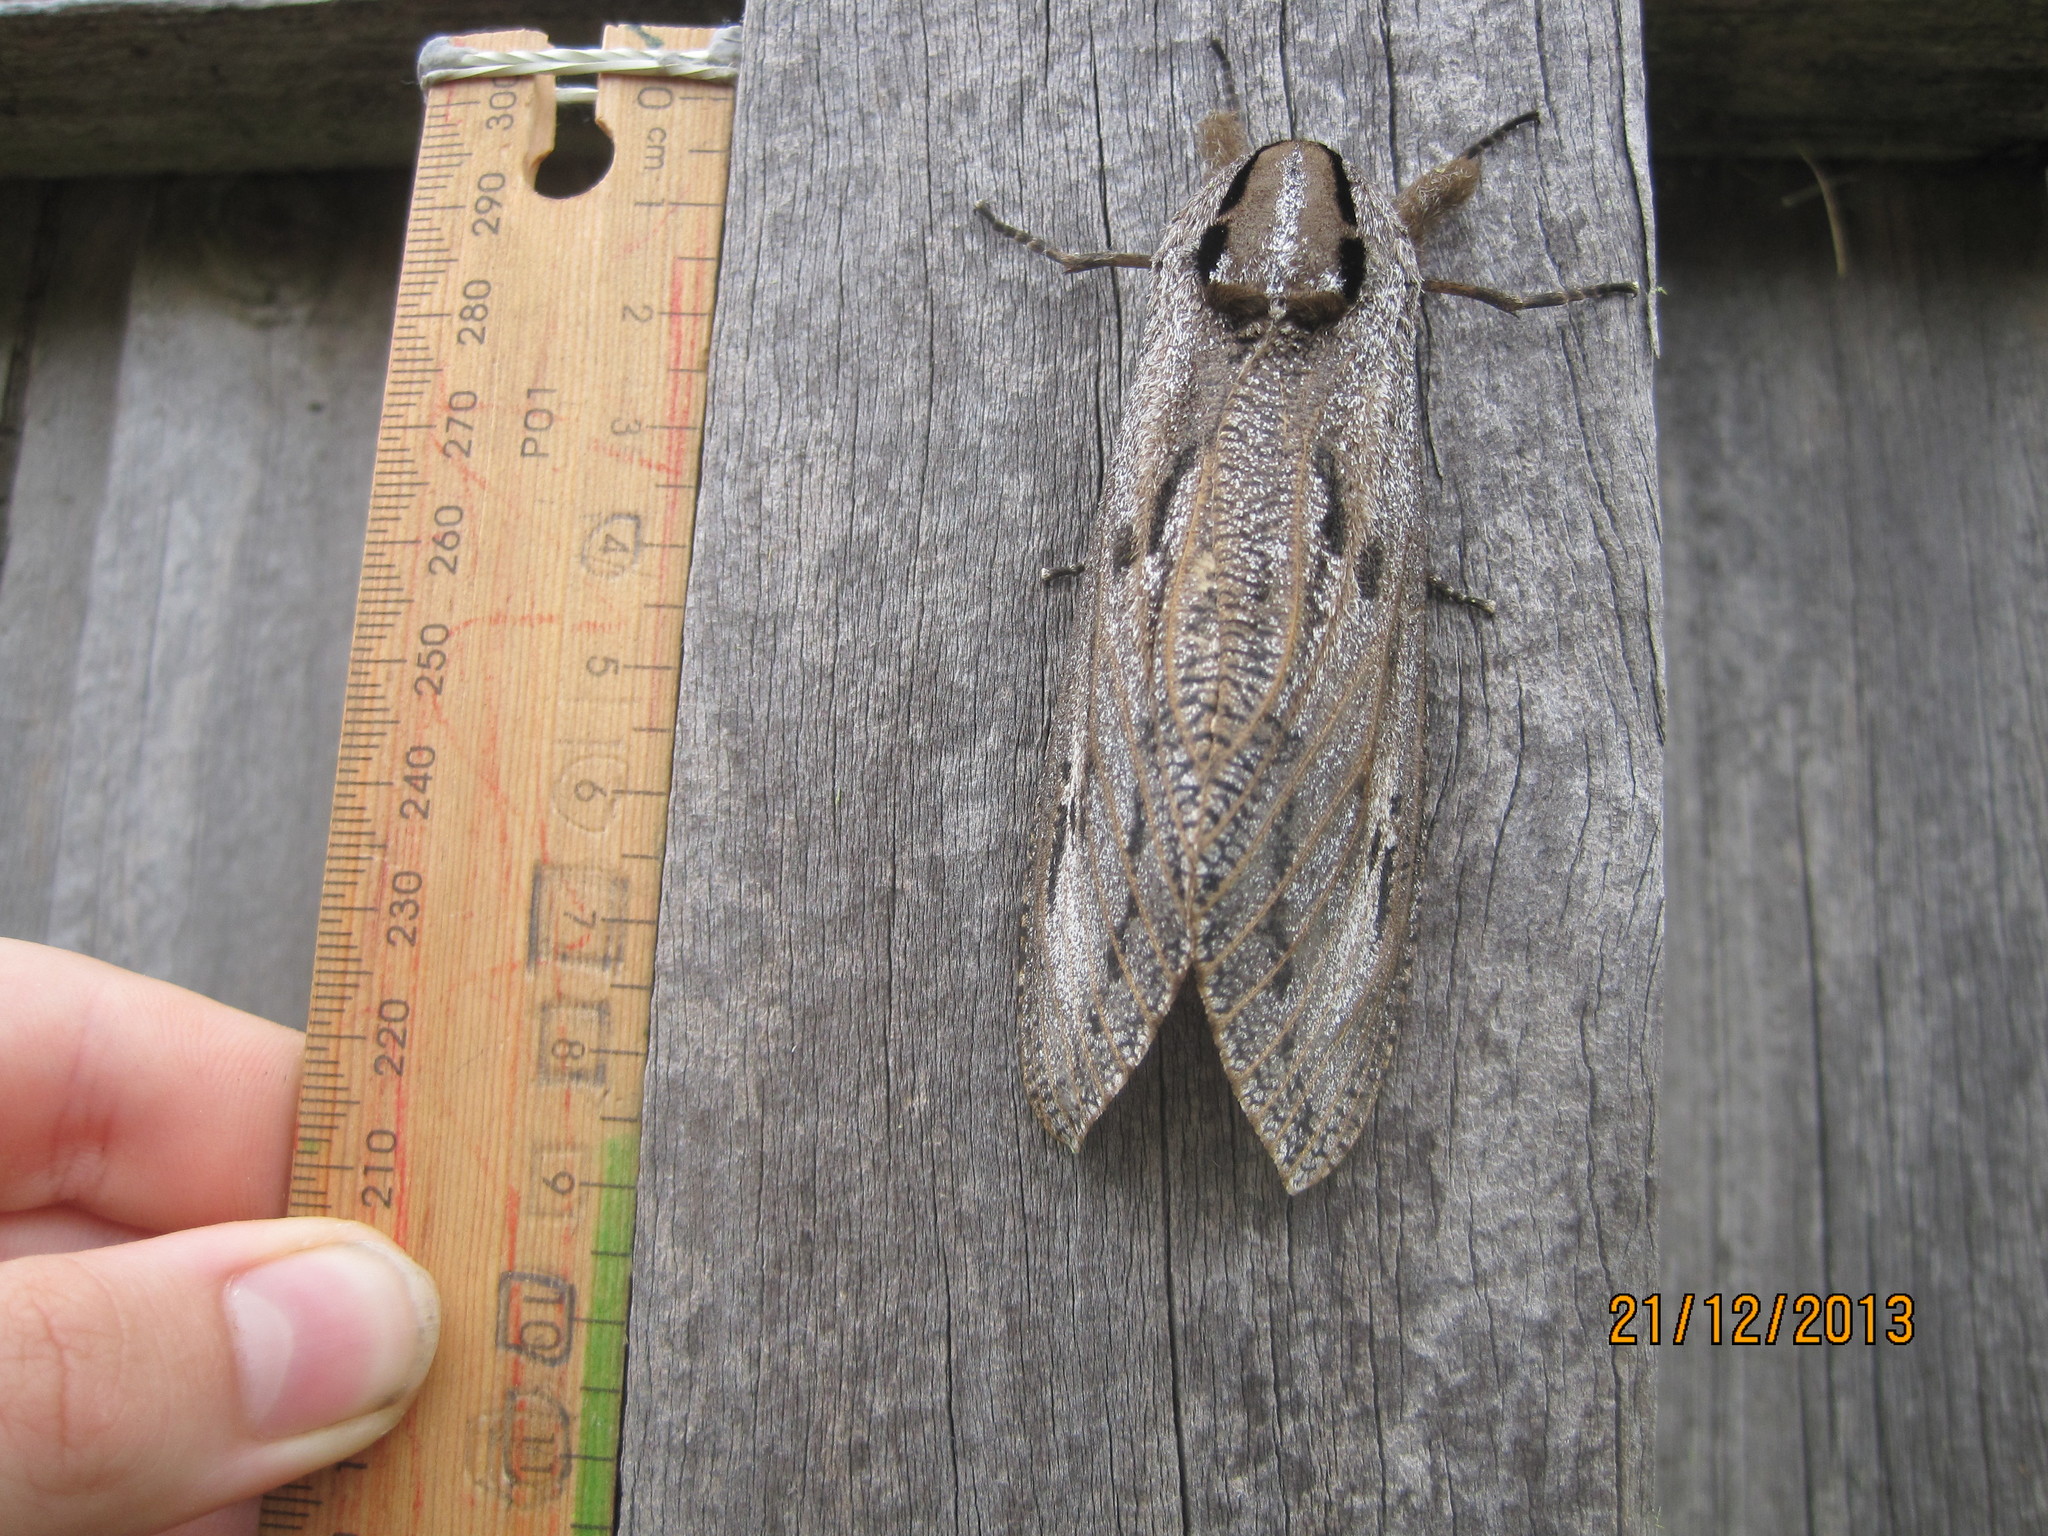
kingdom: Animalia
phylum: Arthropoda
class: Insecta
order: Lepidoptera
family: Cossidae
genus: Endoxyla
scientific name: Endoxyla liturata
